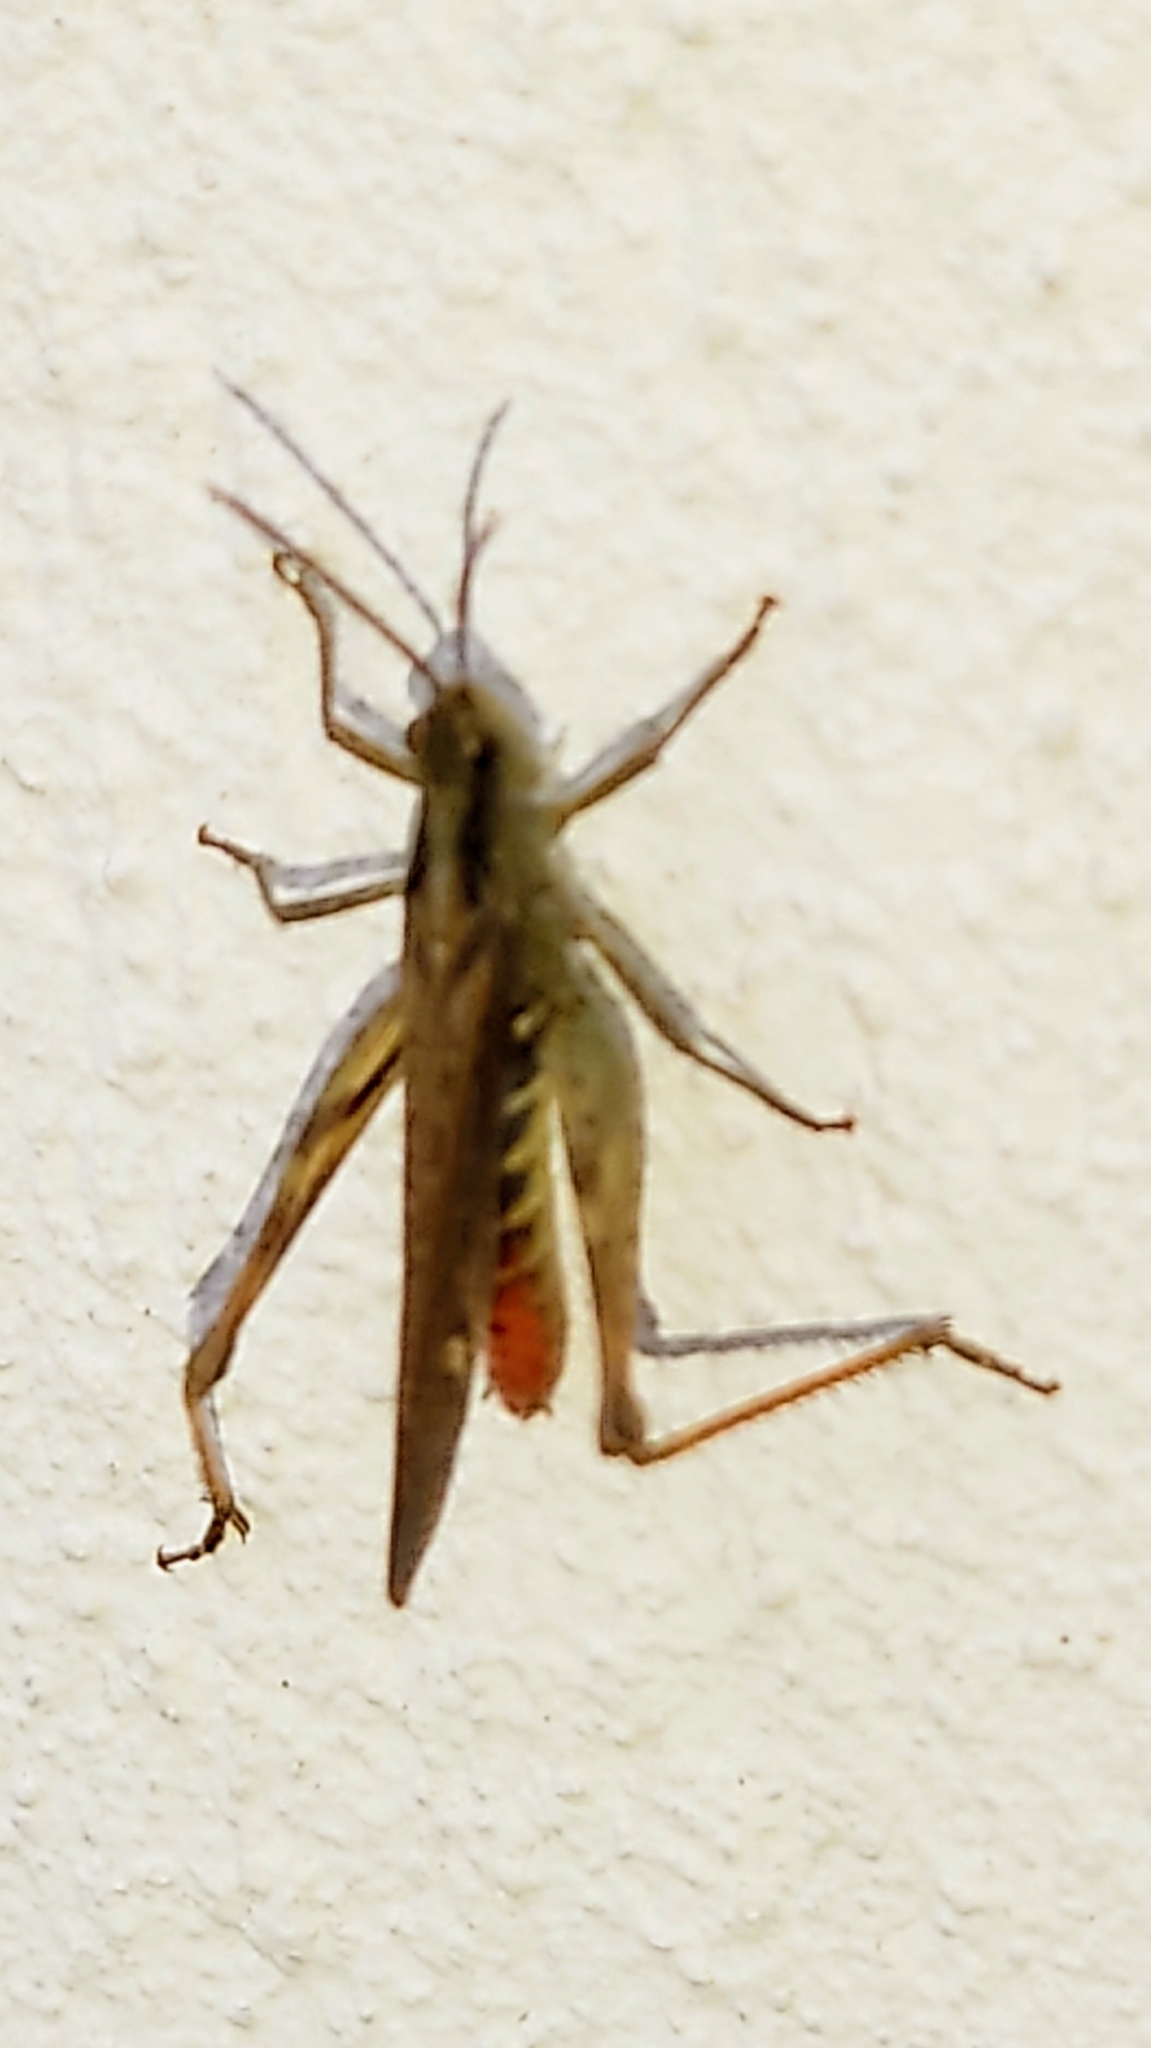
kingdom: Animalia
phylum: Arthropoda
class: Insecta
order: Orthoptera
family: Acrididae
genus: Chorthippus
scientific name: Chorthippus brunneus
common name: Field grasshopper
